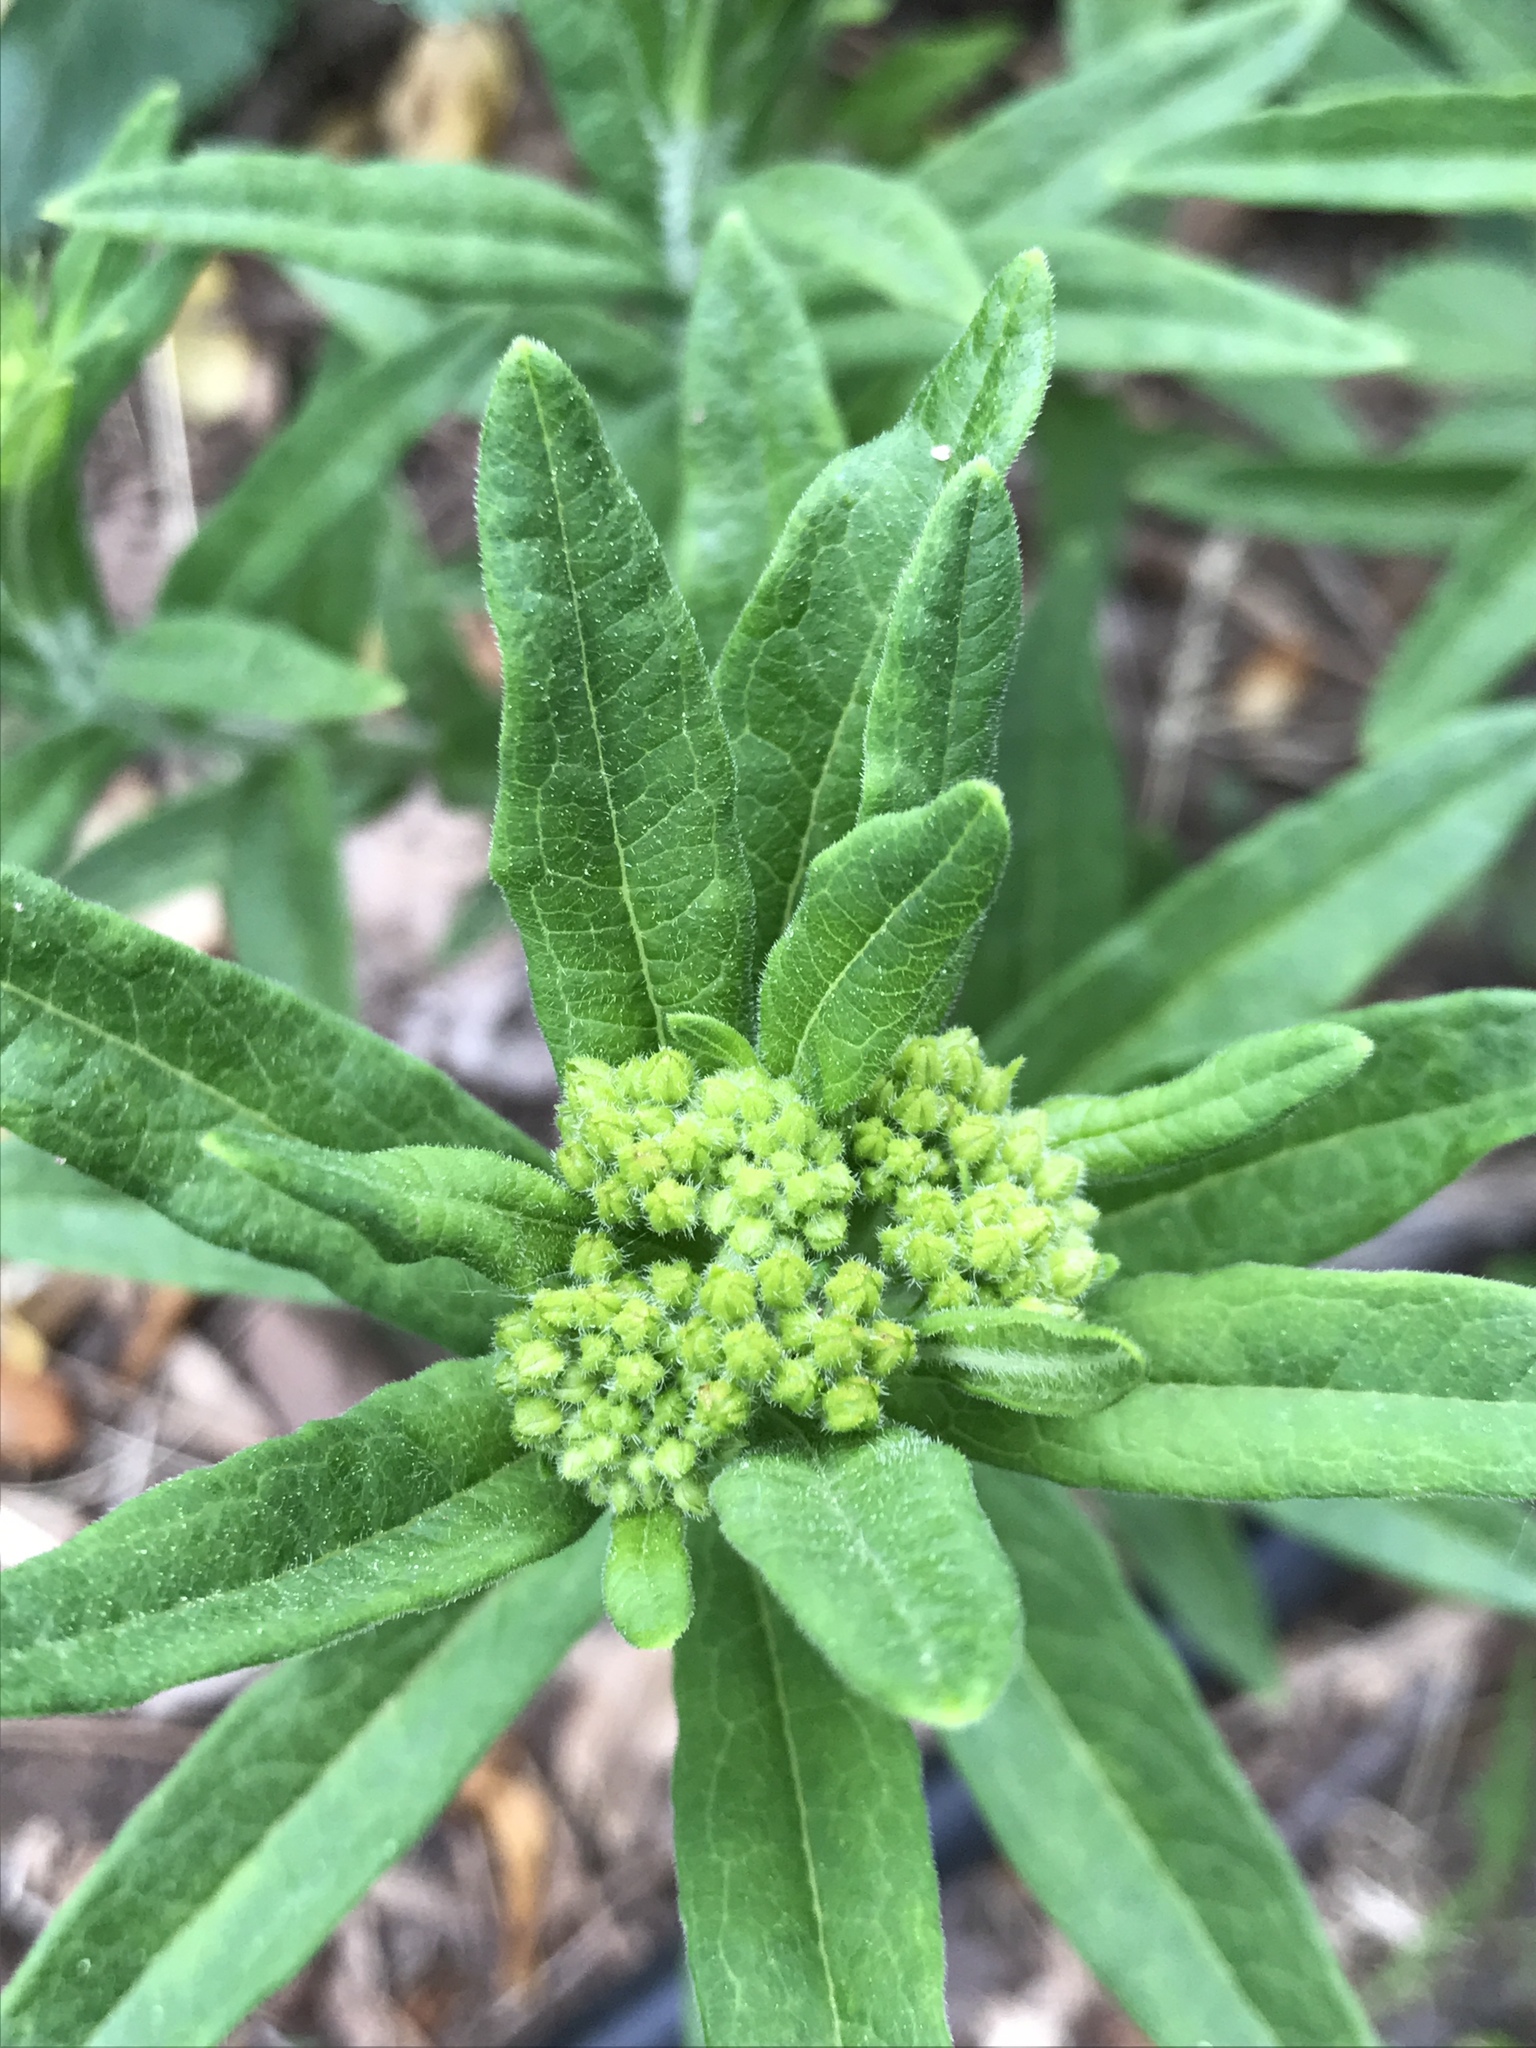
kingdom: Plantae
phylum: Tracheophyta
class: Magnoliopsida
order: Gentianales
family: Apocynaceae
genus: Asclepias
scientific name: Asclepias tuberosa
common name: Butterfly milkweed
